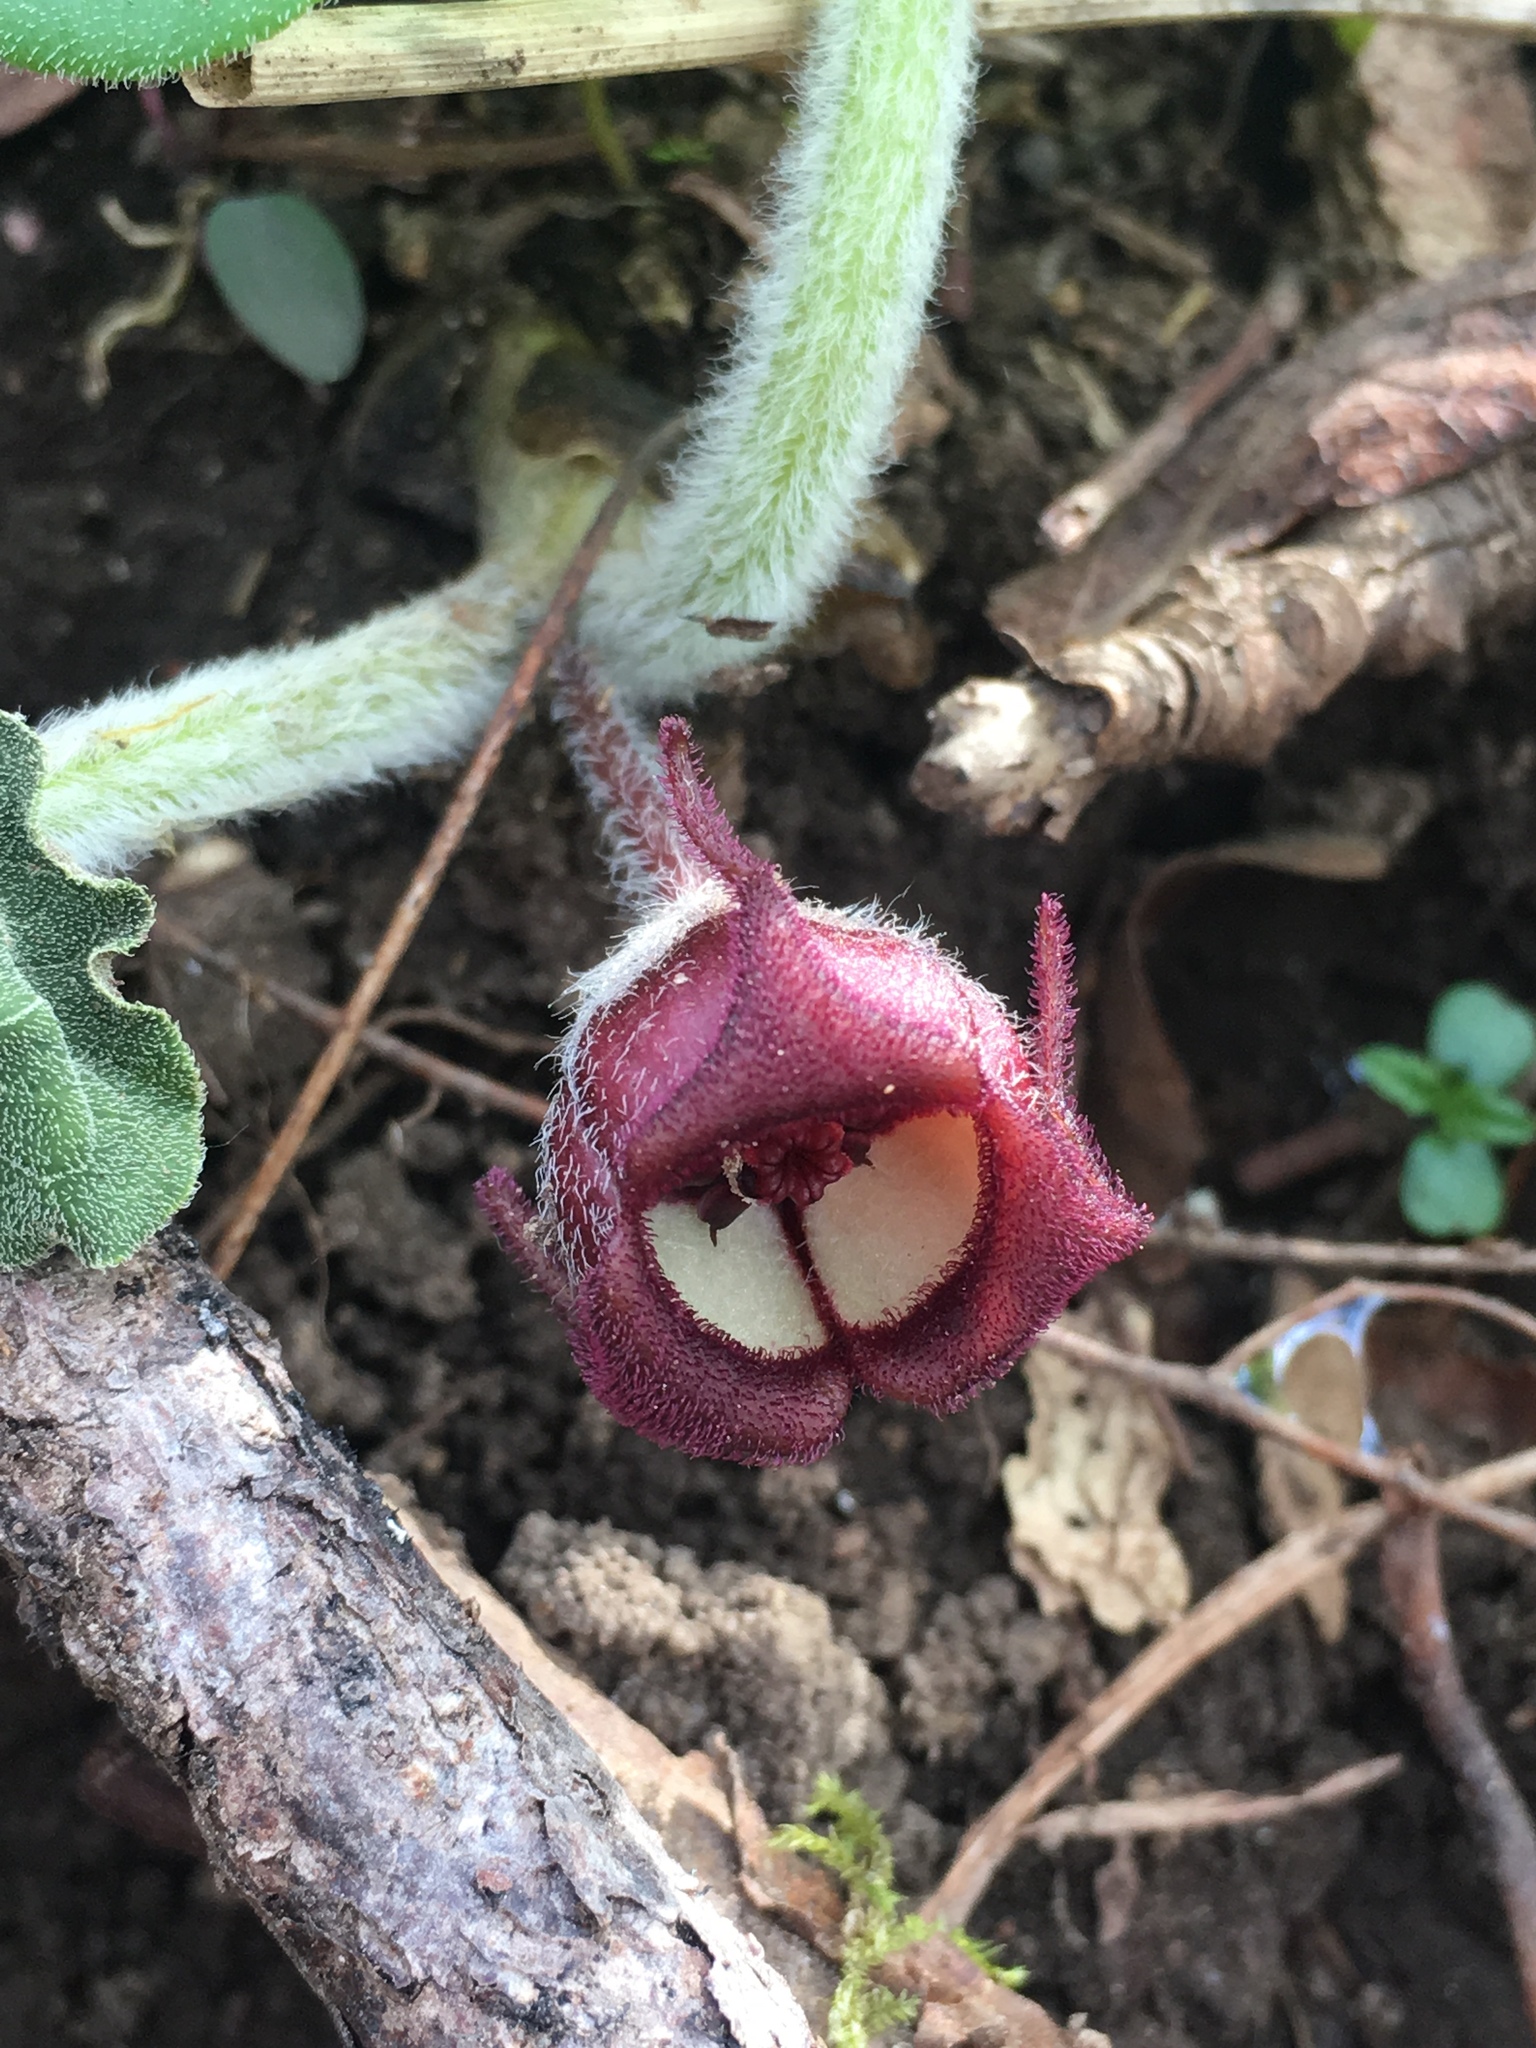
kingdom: Plantae
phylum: Tracheophyta
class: Magnoliopsida
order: Piperales
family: Aristolochiaceae
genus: Asarum
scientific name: Asarum canadense
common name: Wild ginger
